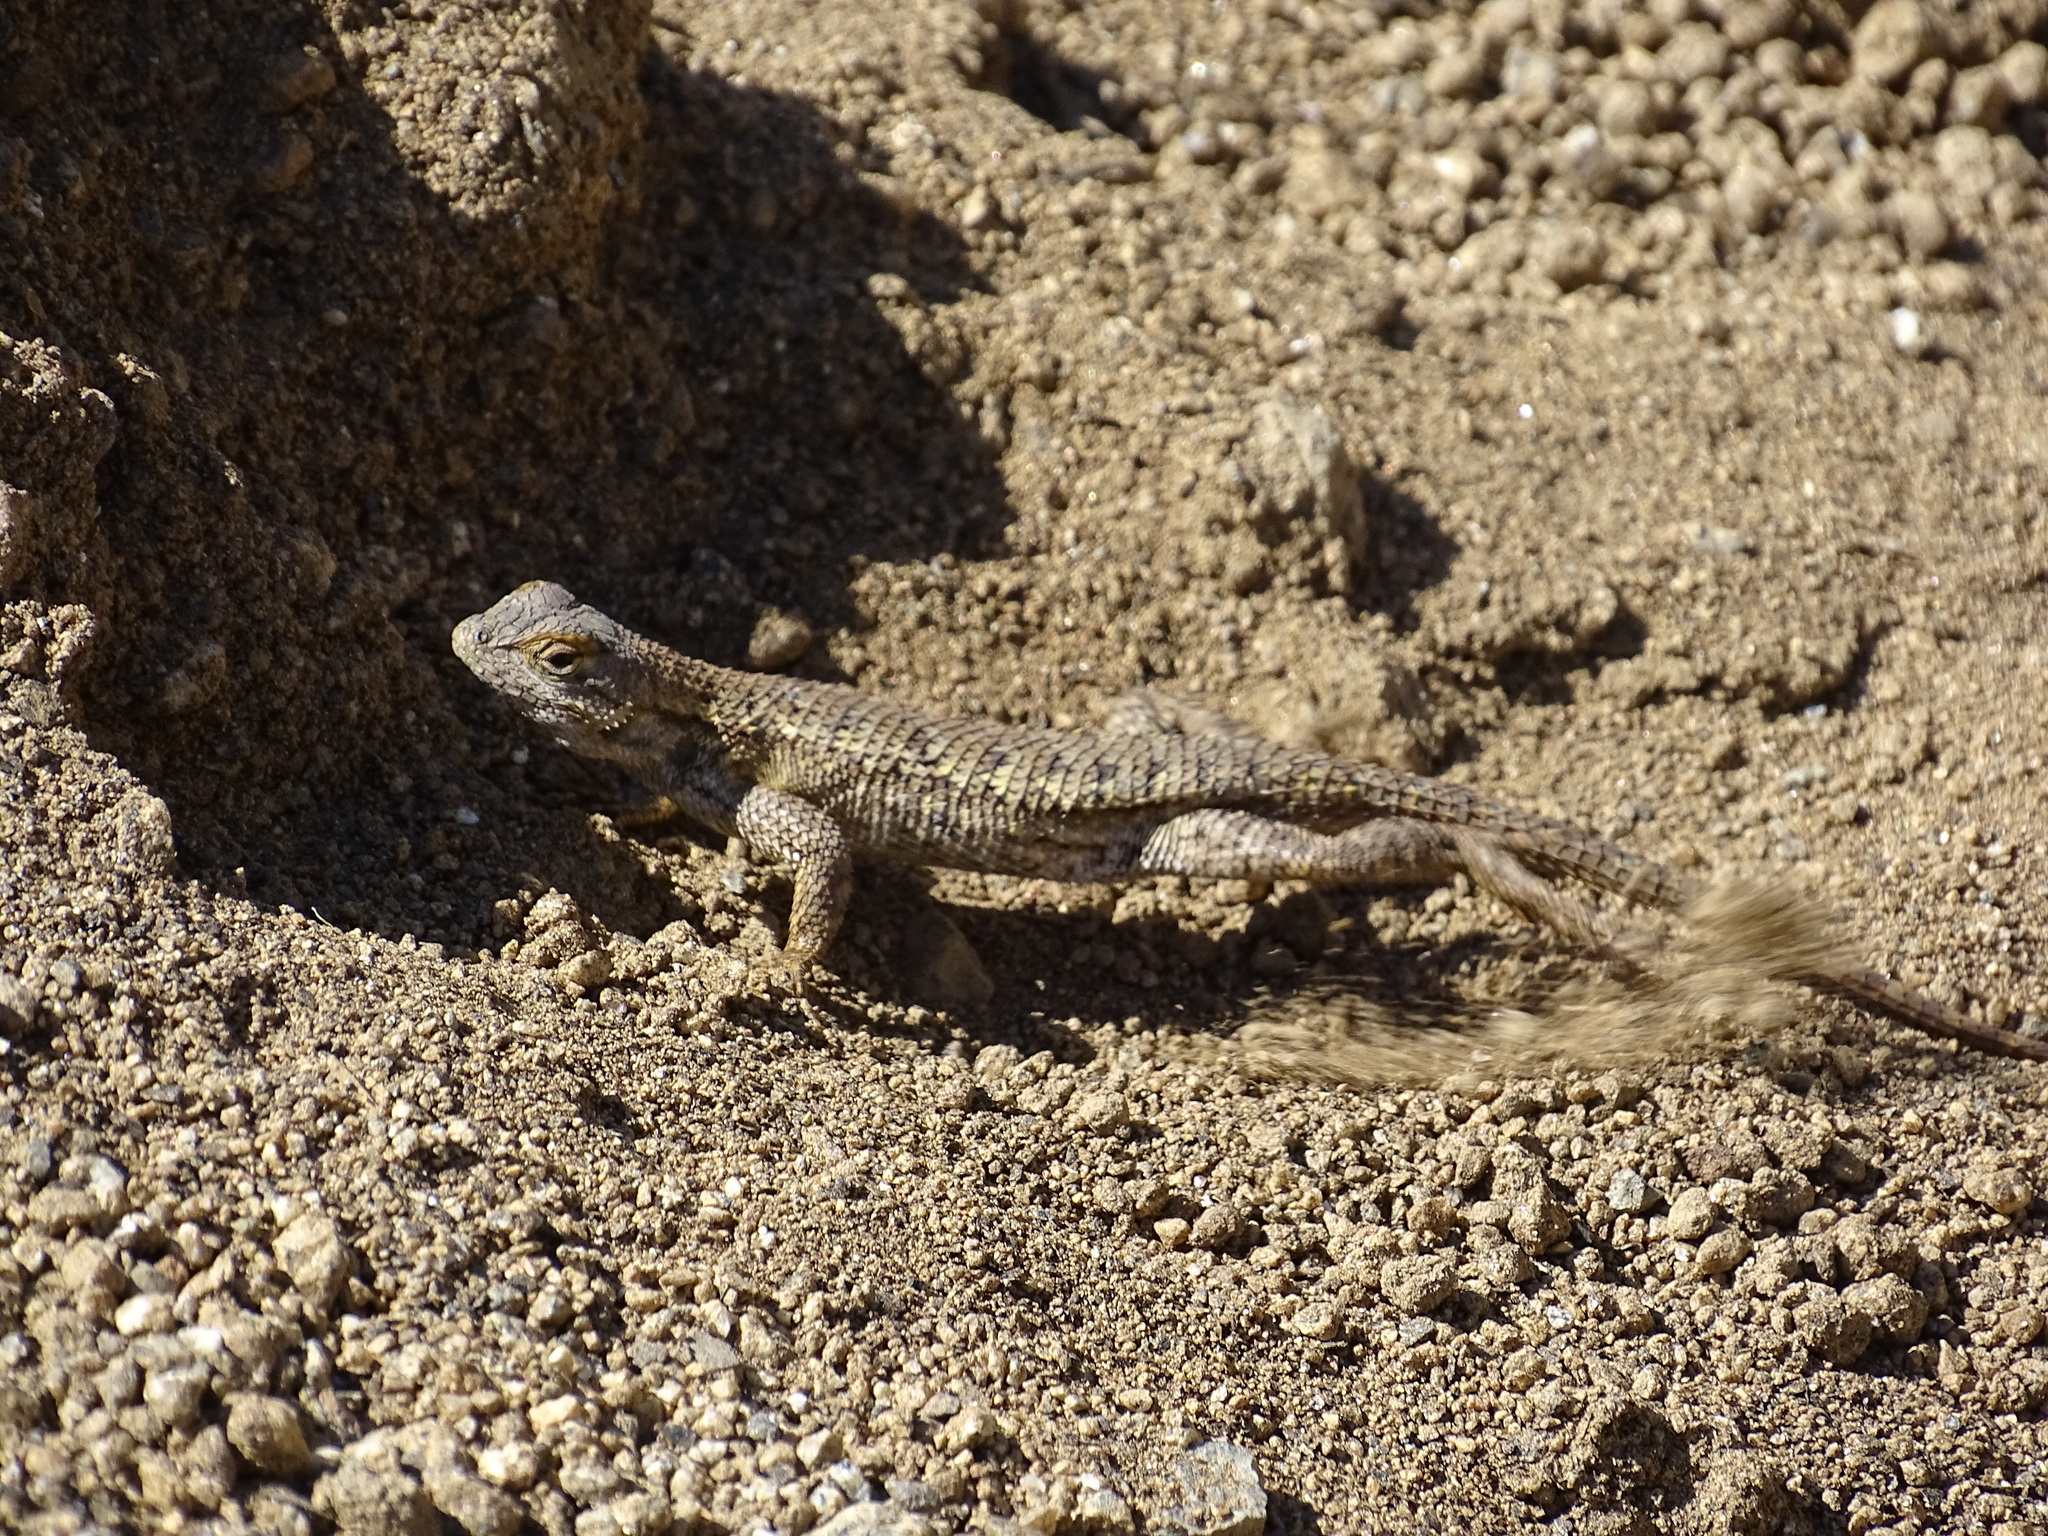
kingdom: Animalia
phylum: Chordata
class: Squamata
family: Phrynosomatidae
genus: Sceloporus
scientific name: Sceloporus occidentalis
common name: Western fence lizard
